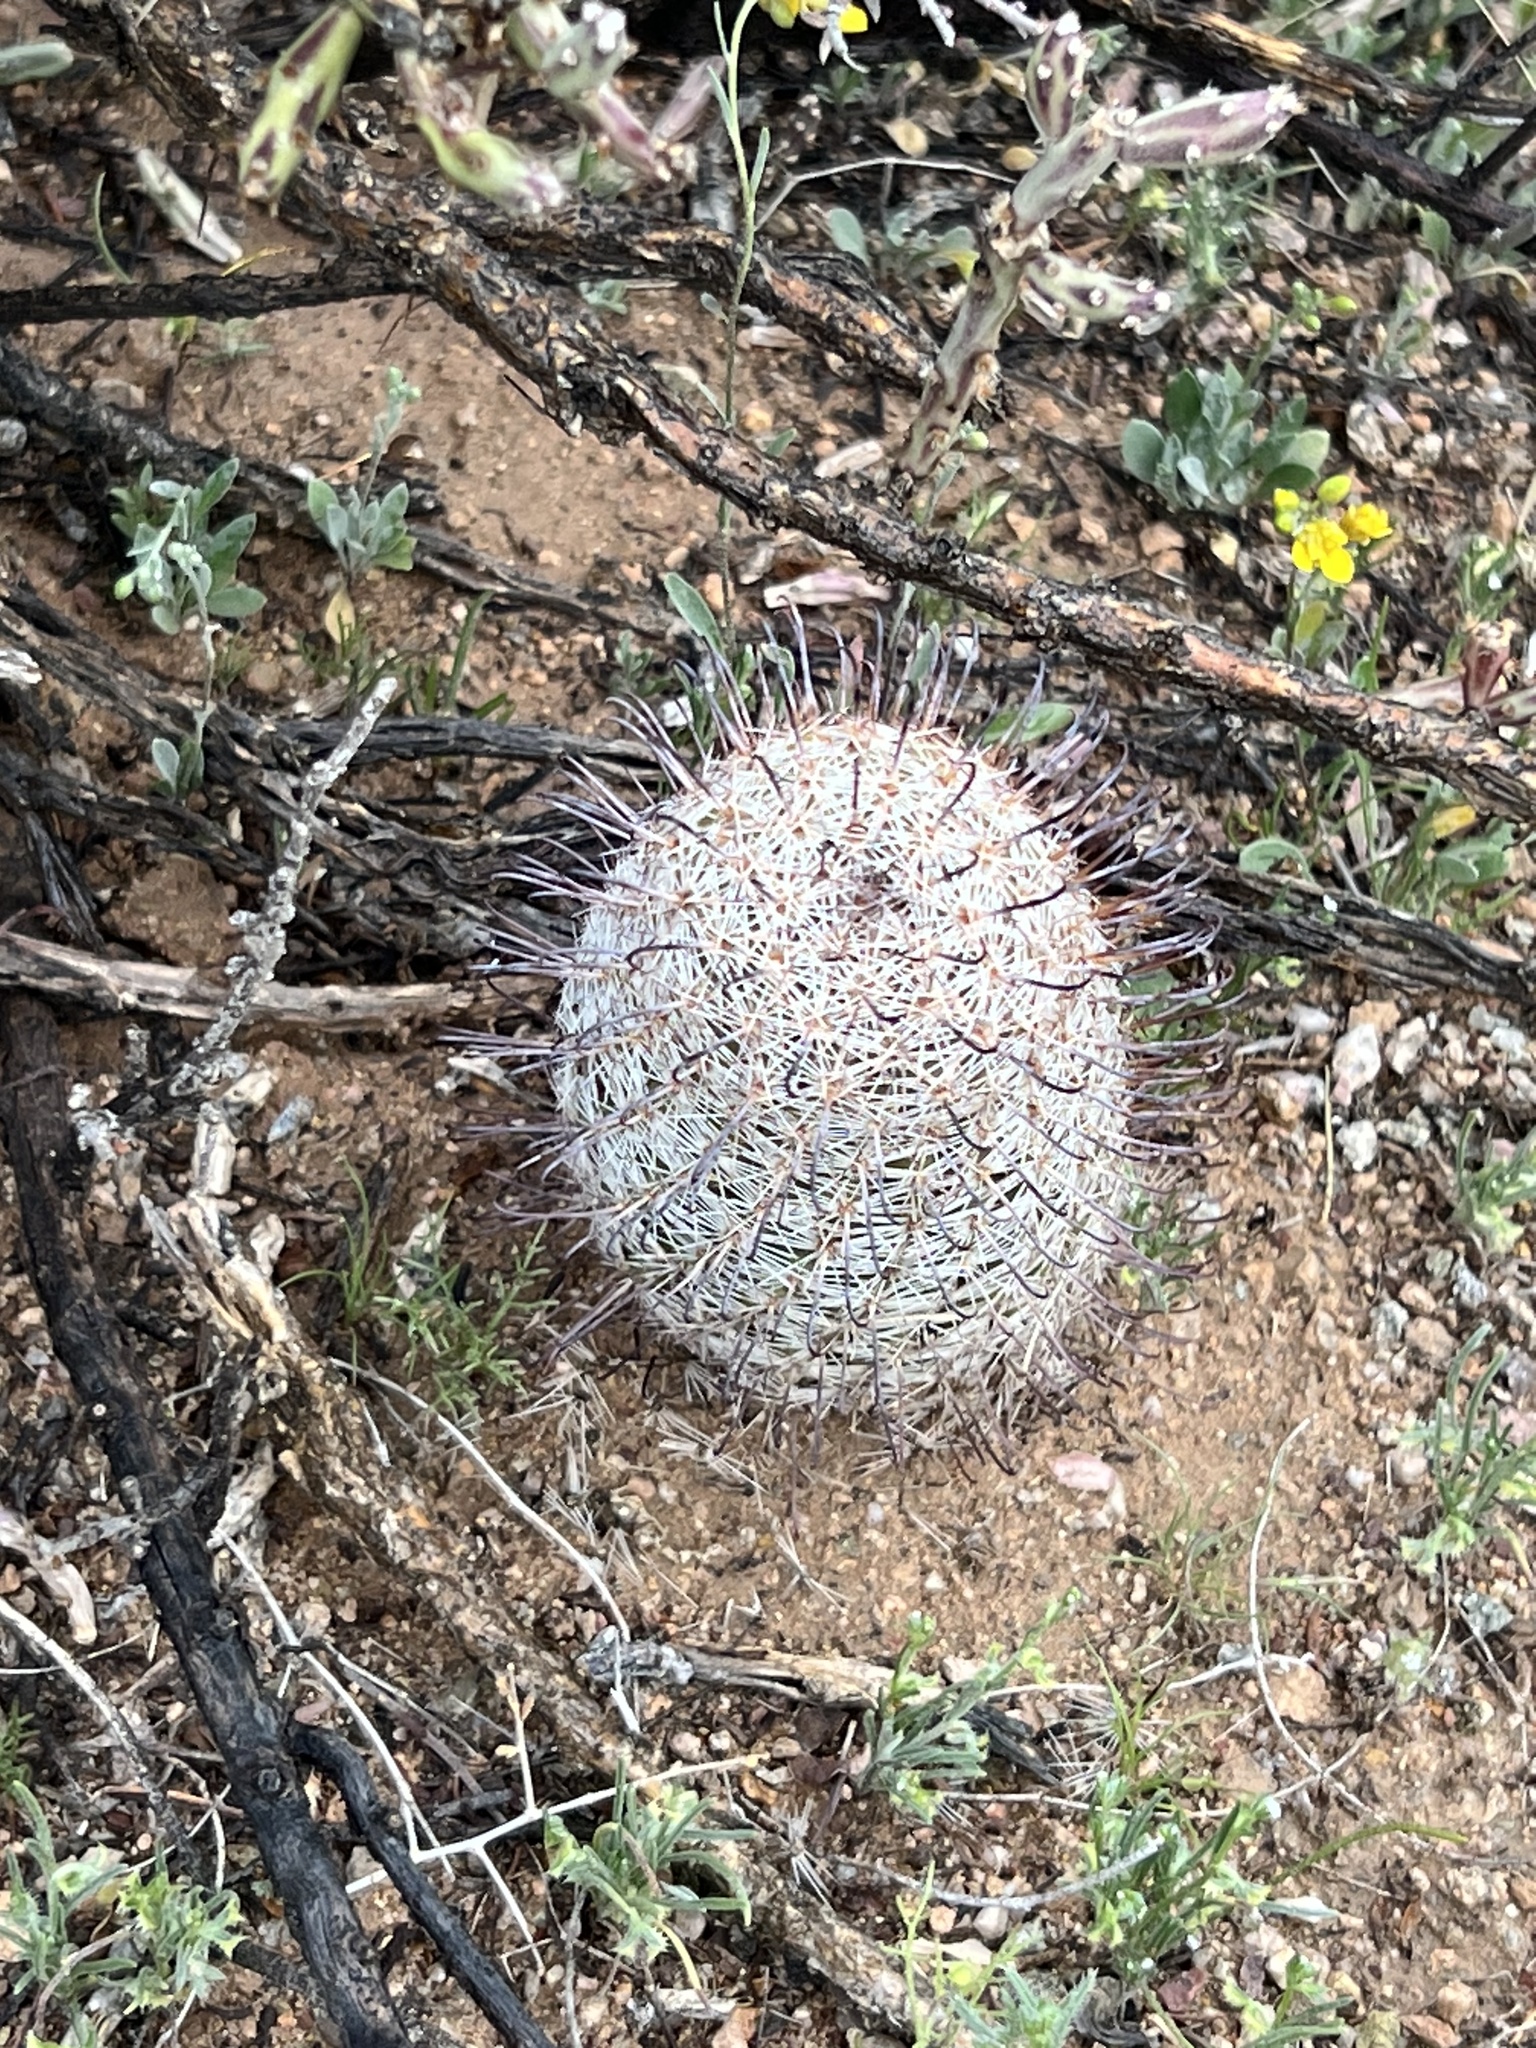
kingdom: Plantae
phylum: Tracheophyta
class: Magnoliopsida
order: Caryophyllales
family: Cactaceae
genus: Cochemiea
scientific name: Cochemiea grahamii
